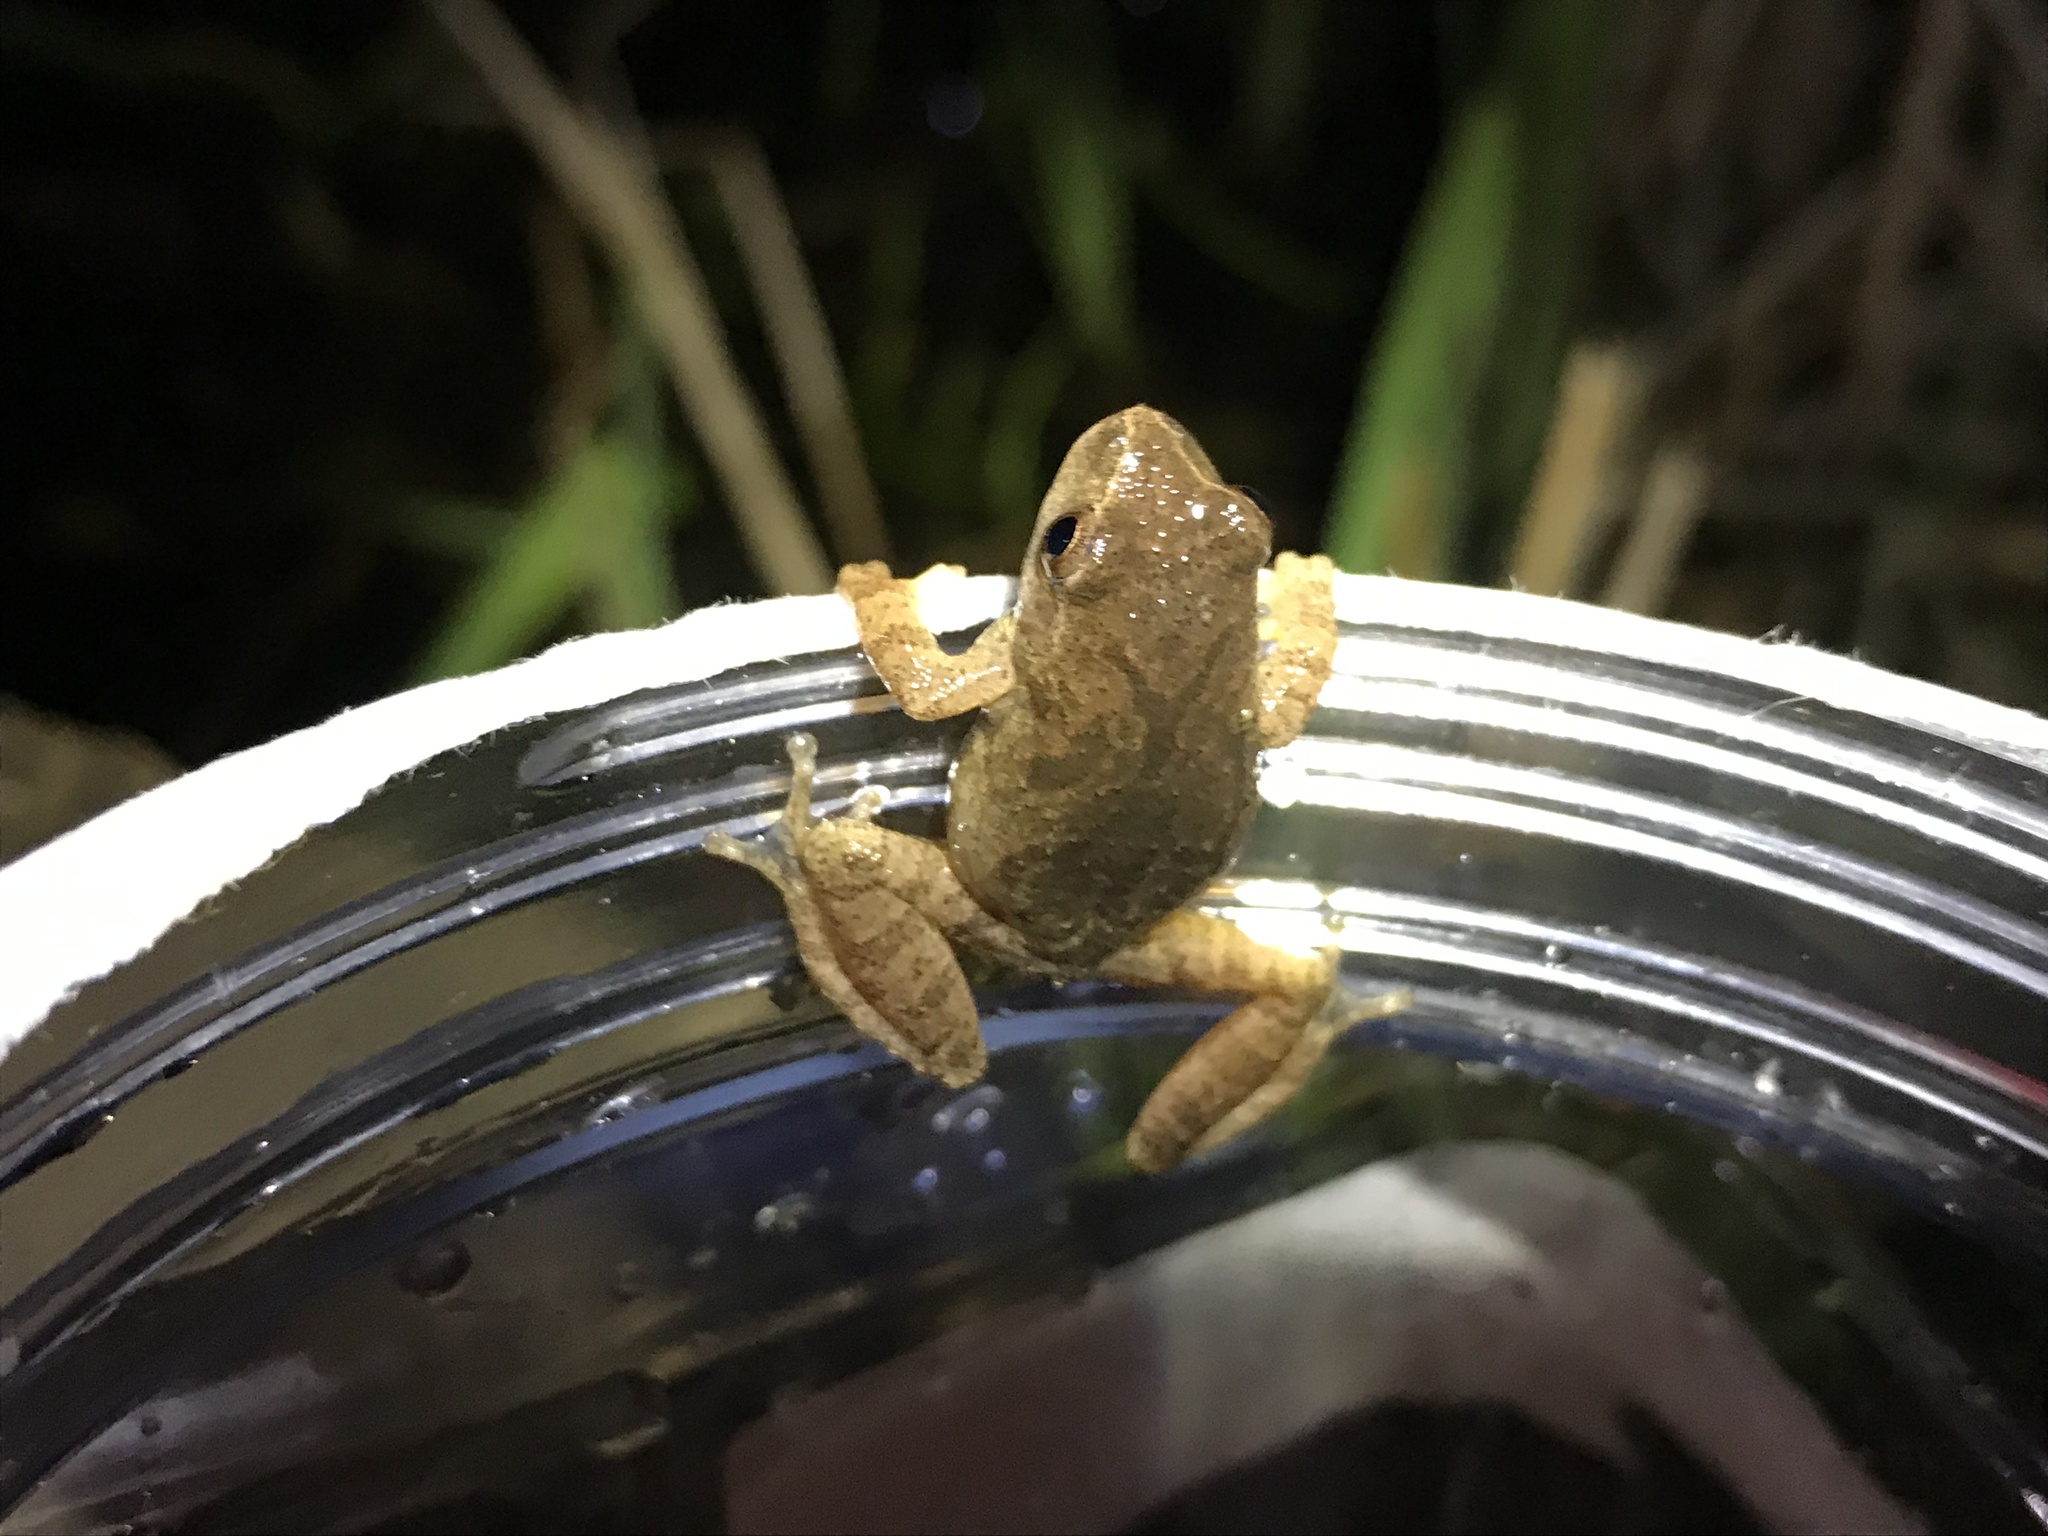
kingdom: Animalia
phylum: Chordata
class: Amphibia
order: Anura
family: Hylidae
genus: Pseudacris
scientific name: Pseudacris crucifer
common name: Spring peeper
